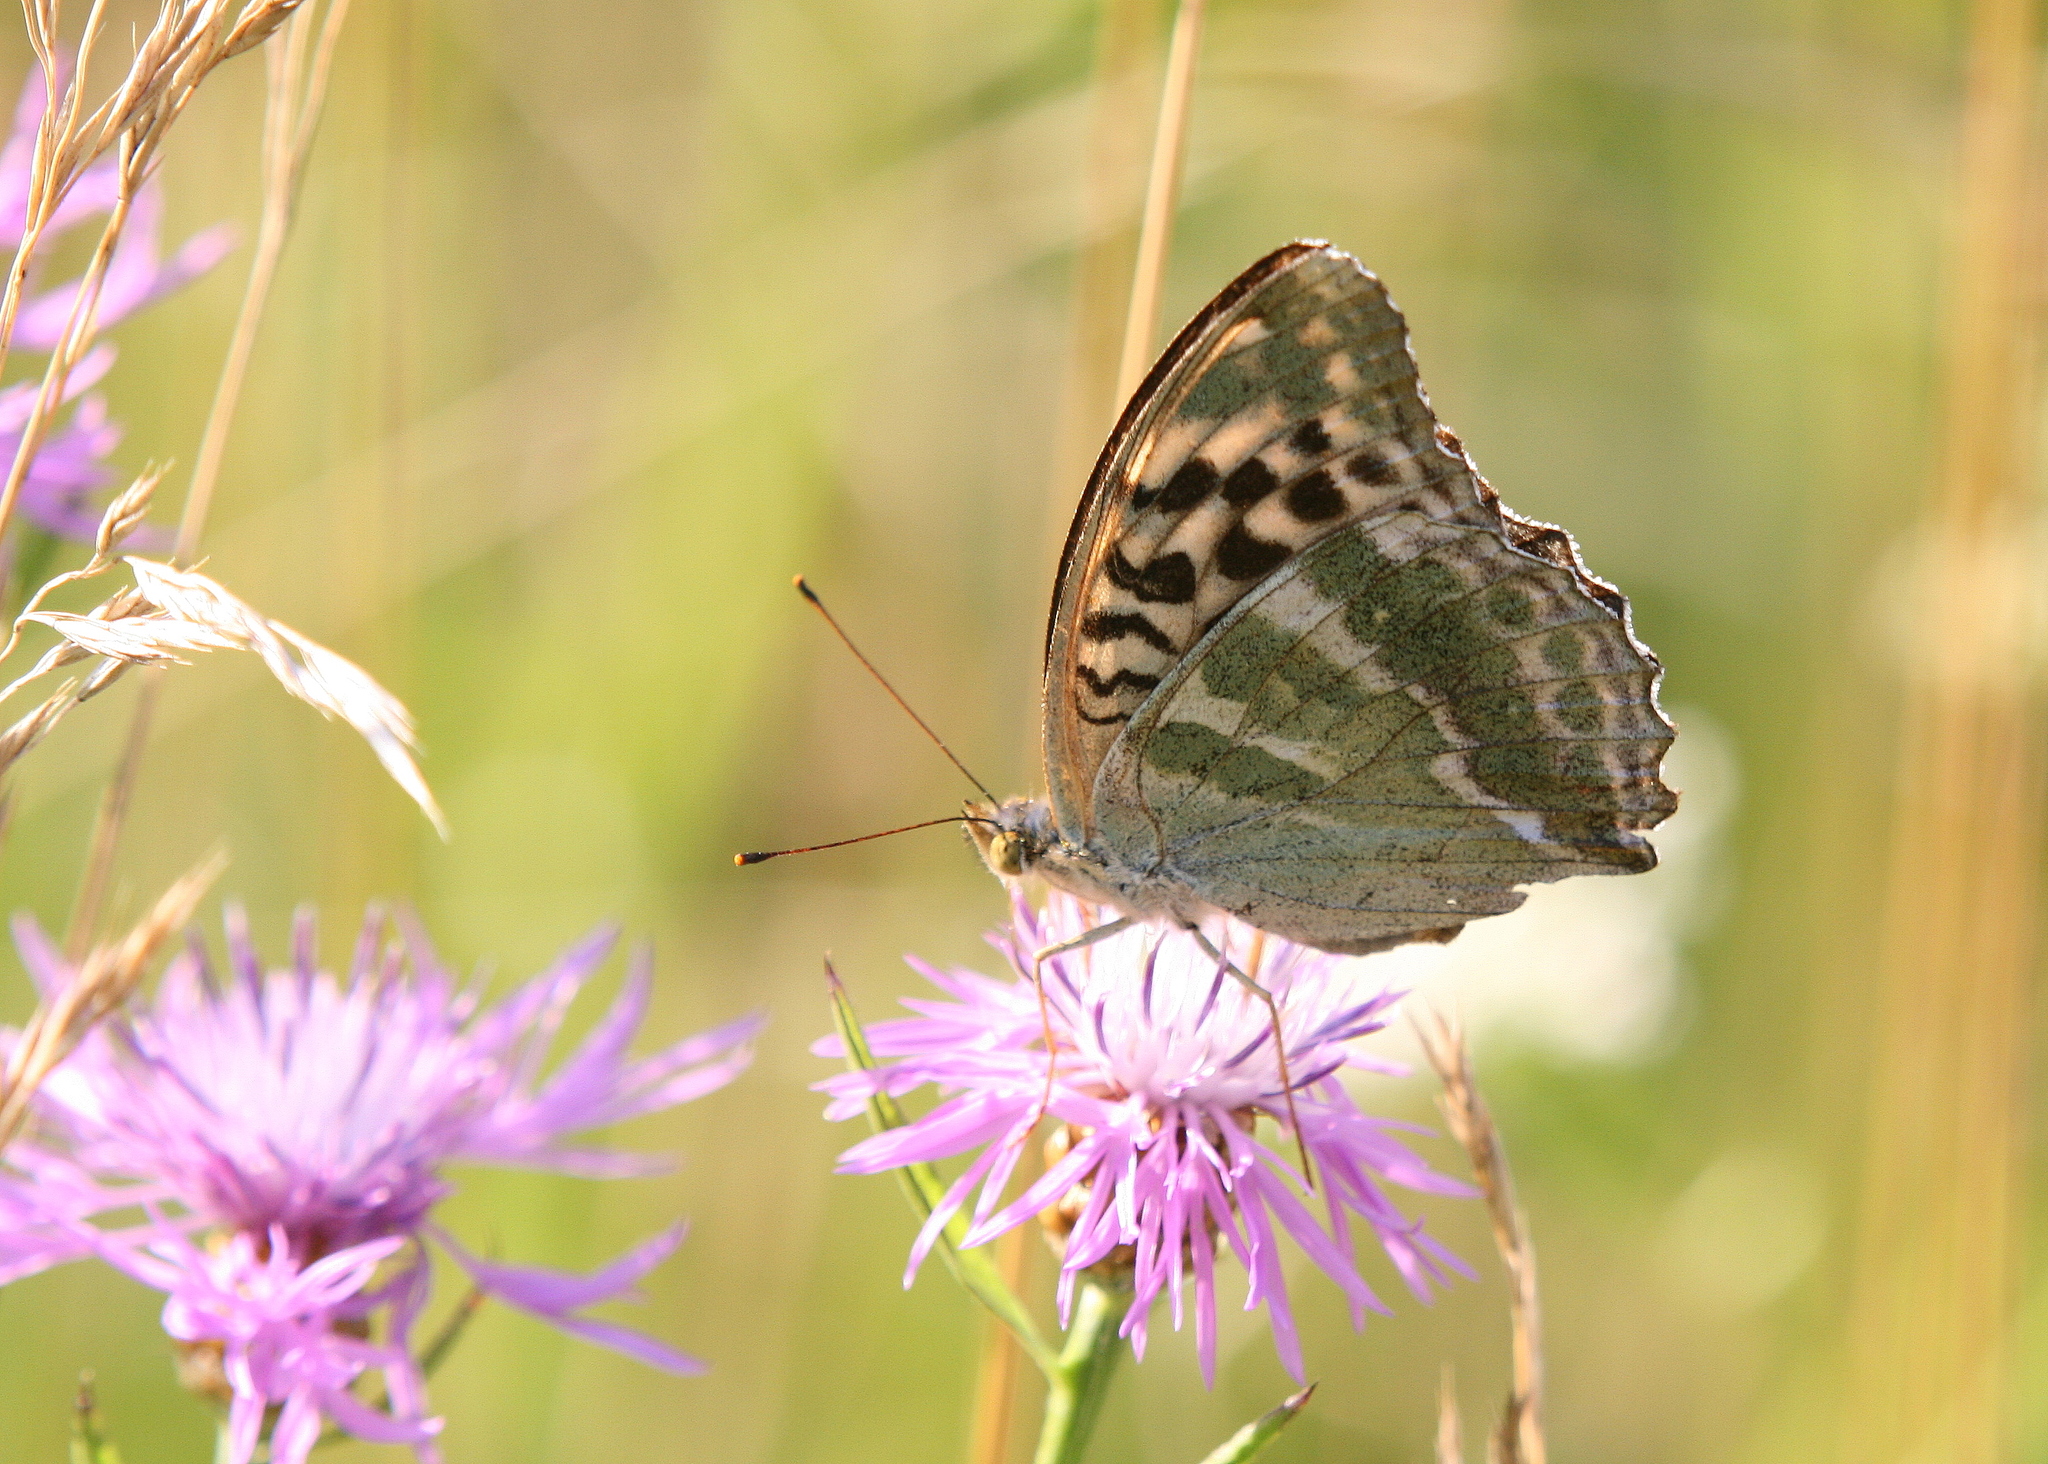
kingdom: Animalia
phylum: Arthropoda
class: Insecta
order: Lepidoptera
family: Nymphalidae
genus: Argynnis
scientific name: Argynnis paphia
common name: Silver-washed fritillary
